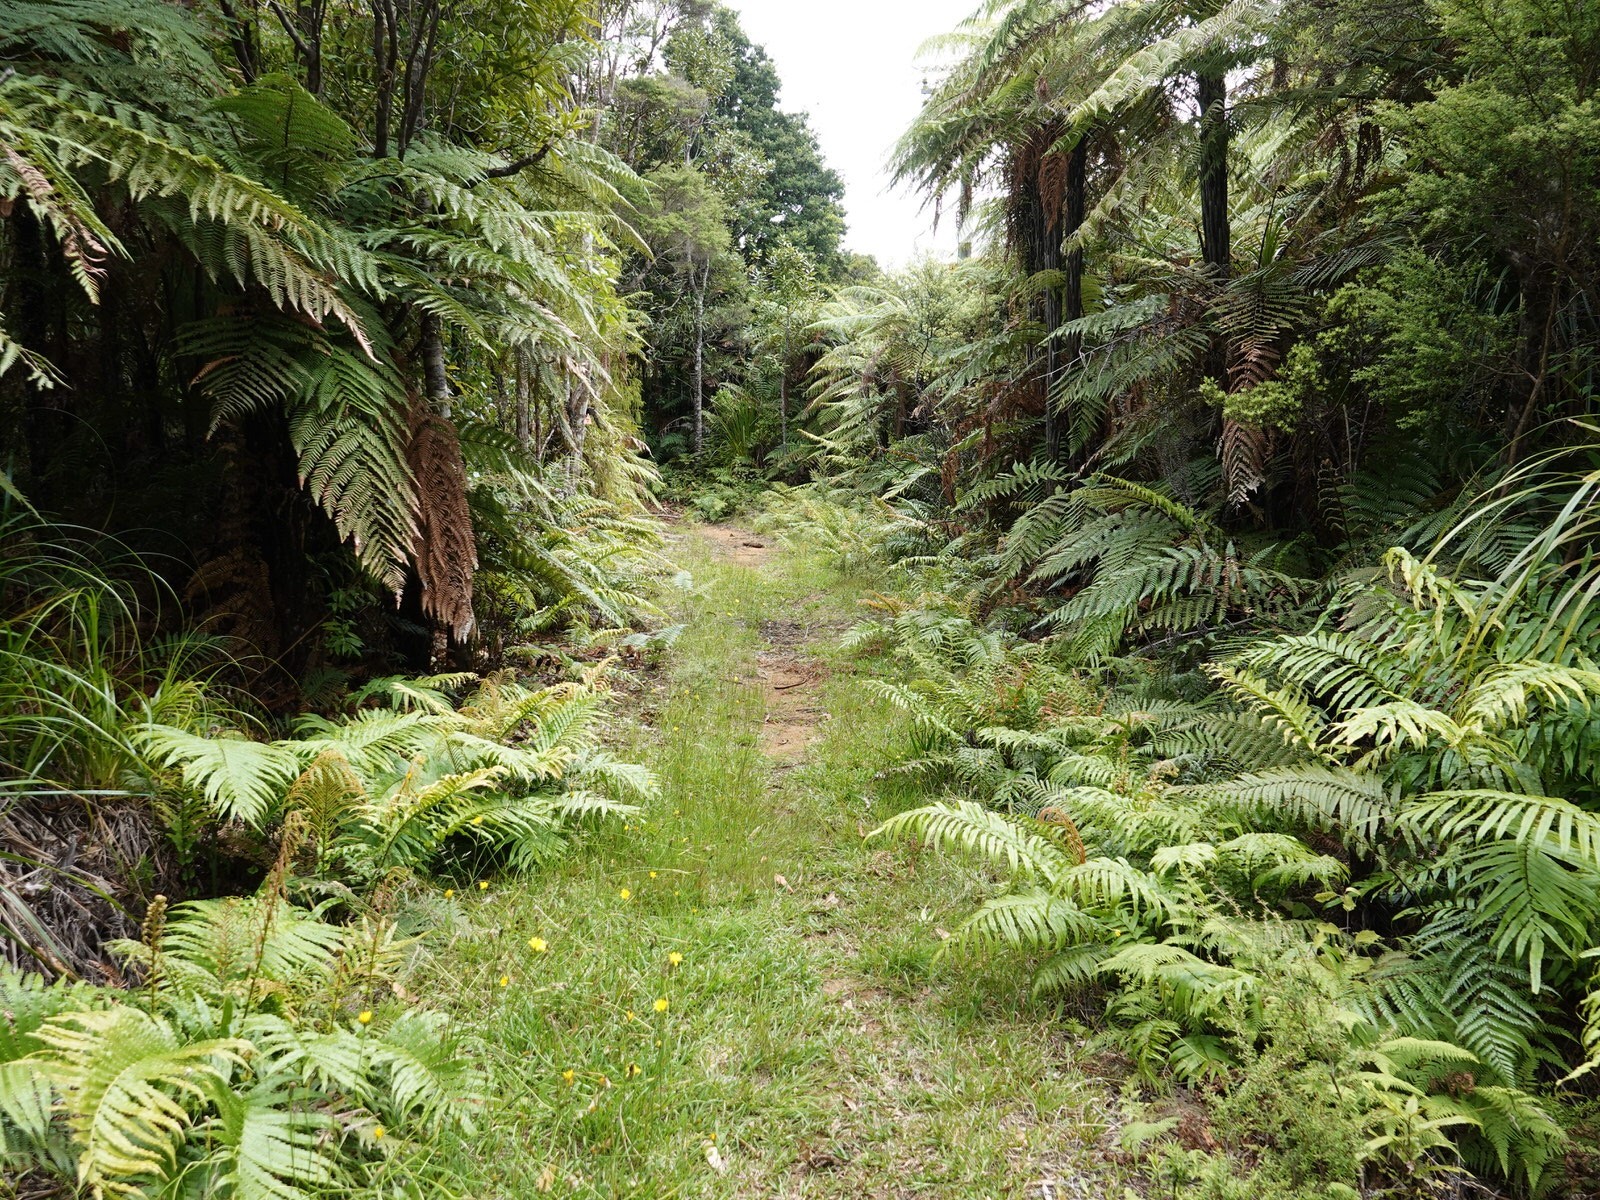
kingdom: Plantae
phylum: Tracheophyta
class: Polypodiopsida
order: Polypodiales
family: Blechnaceae
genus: Parablechnum
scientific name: Parablechnum novae-zelandiae
